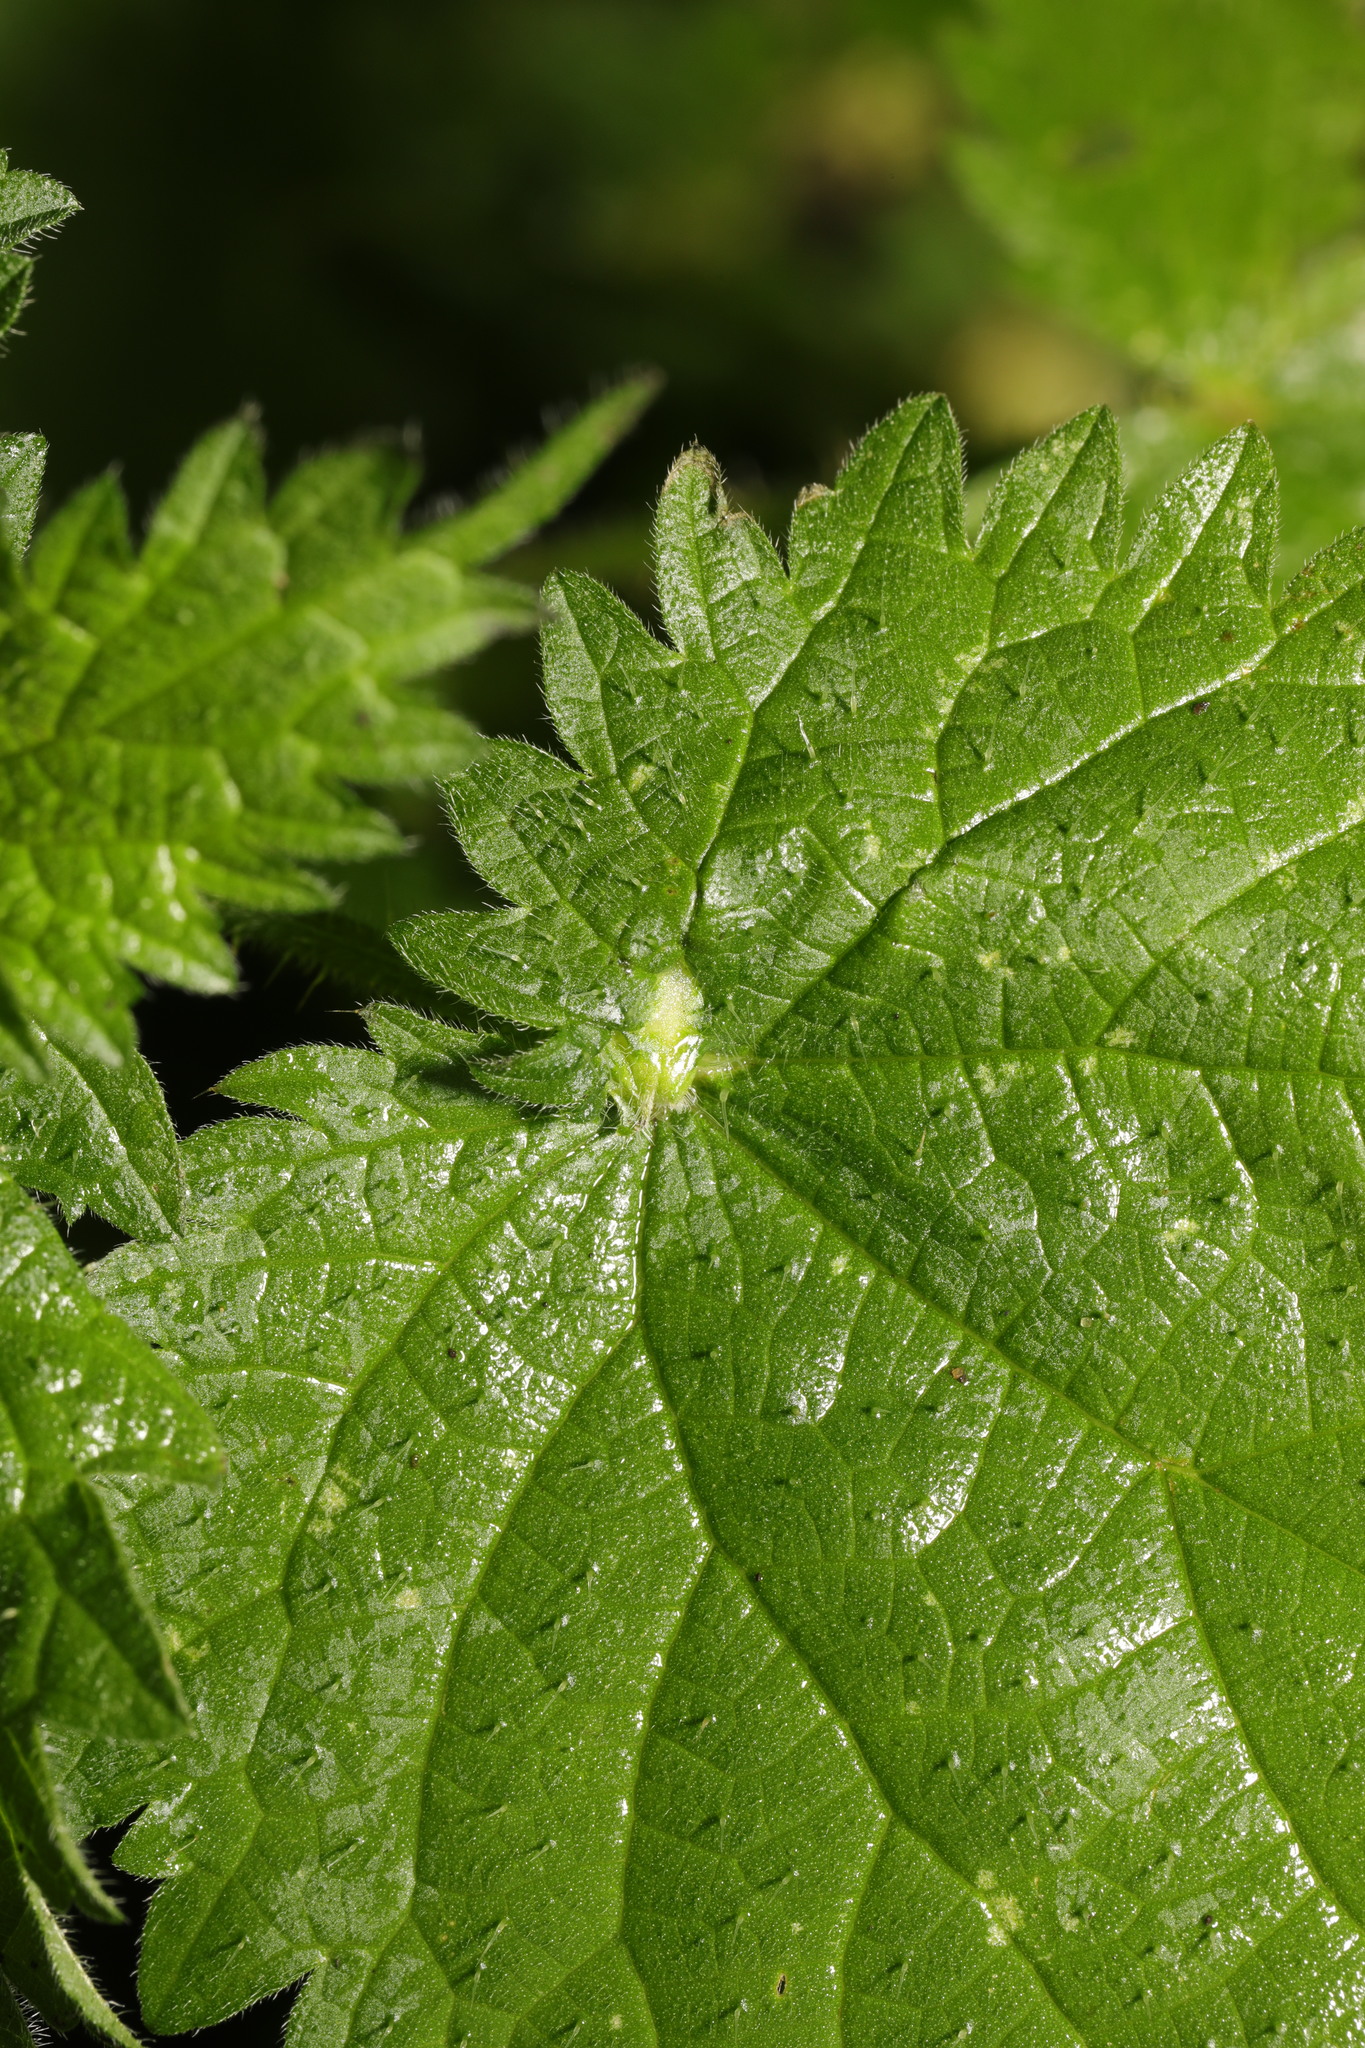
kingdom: Animalia
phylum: Arthropoda
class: Insecta
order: Diptera
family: Cecidomyiidae
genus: Dasineura
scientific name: Dasineura urticae
